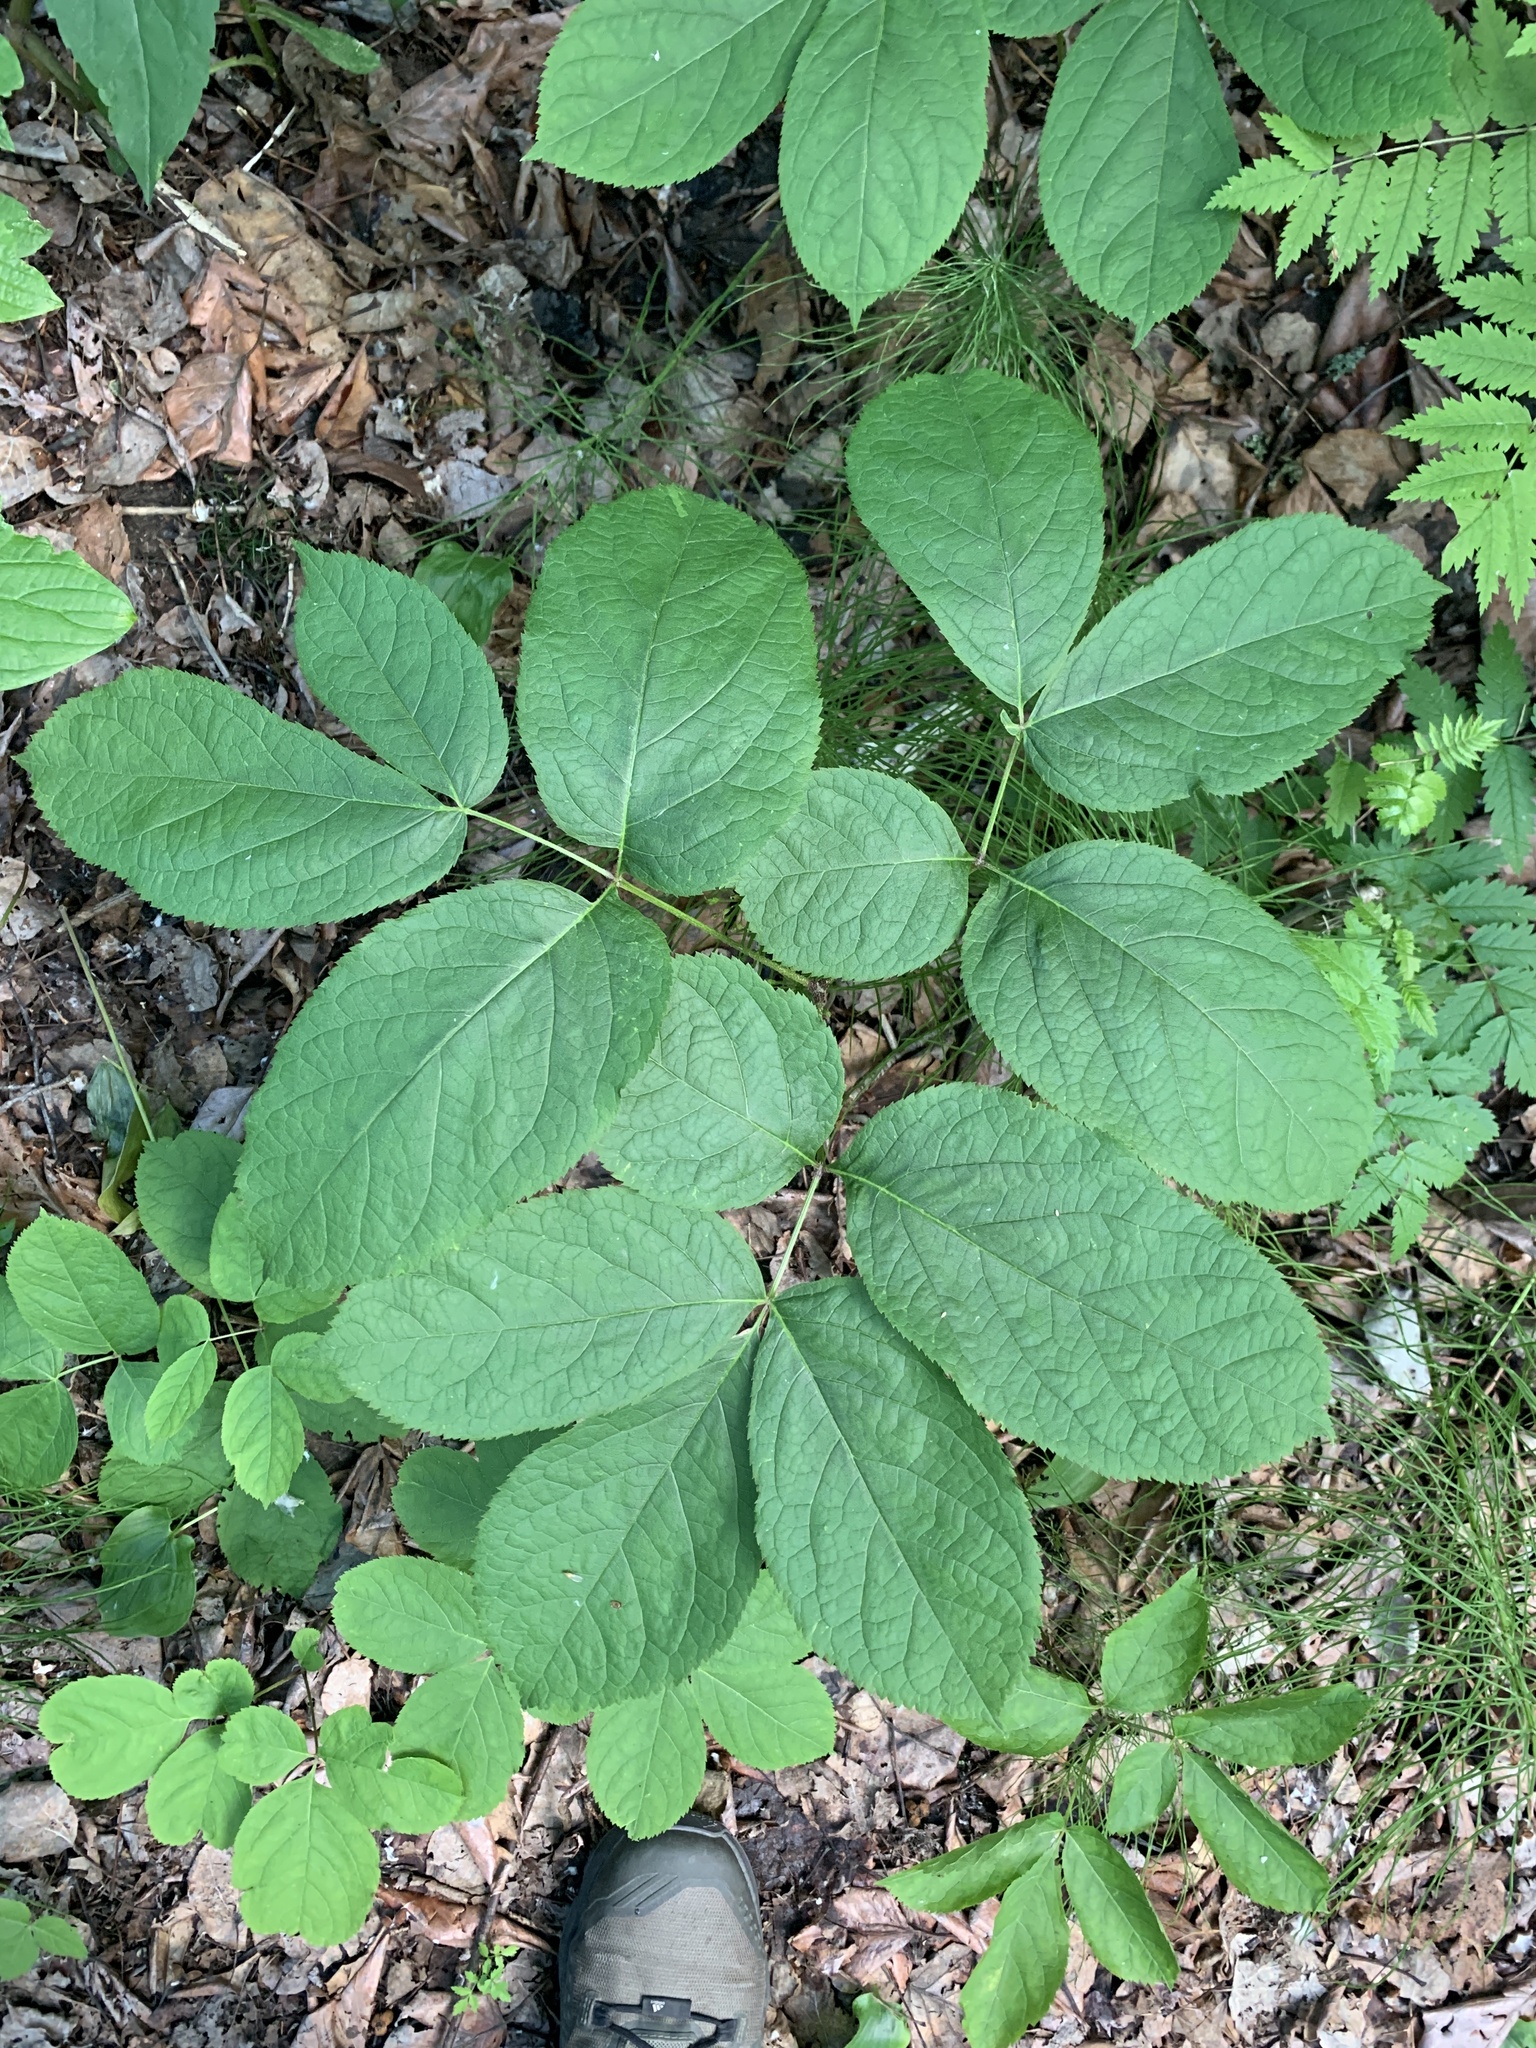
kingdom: Plantae
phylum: Tracheophyta
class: Magnoliopsida
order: Apiales
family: Araliaceae
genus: Aralia
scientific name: Aralia nudicaulis
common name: Wild sarsaparilla
